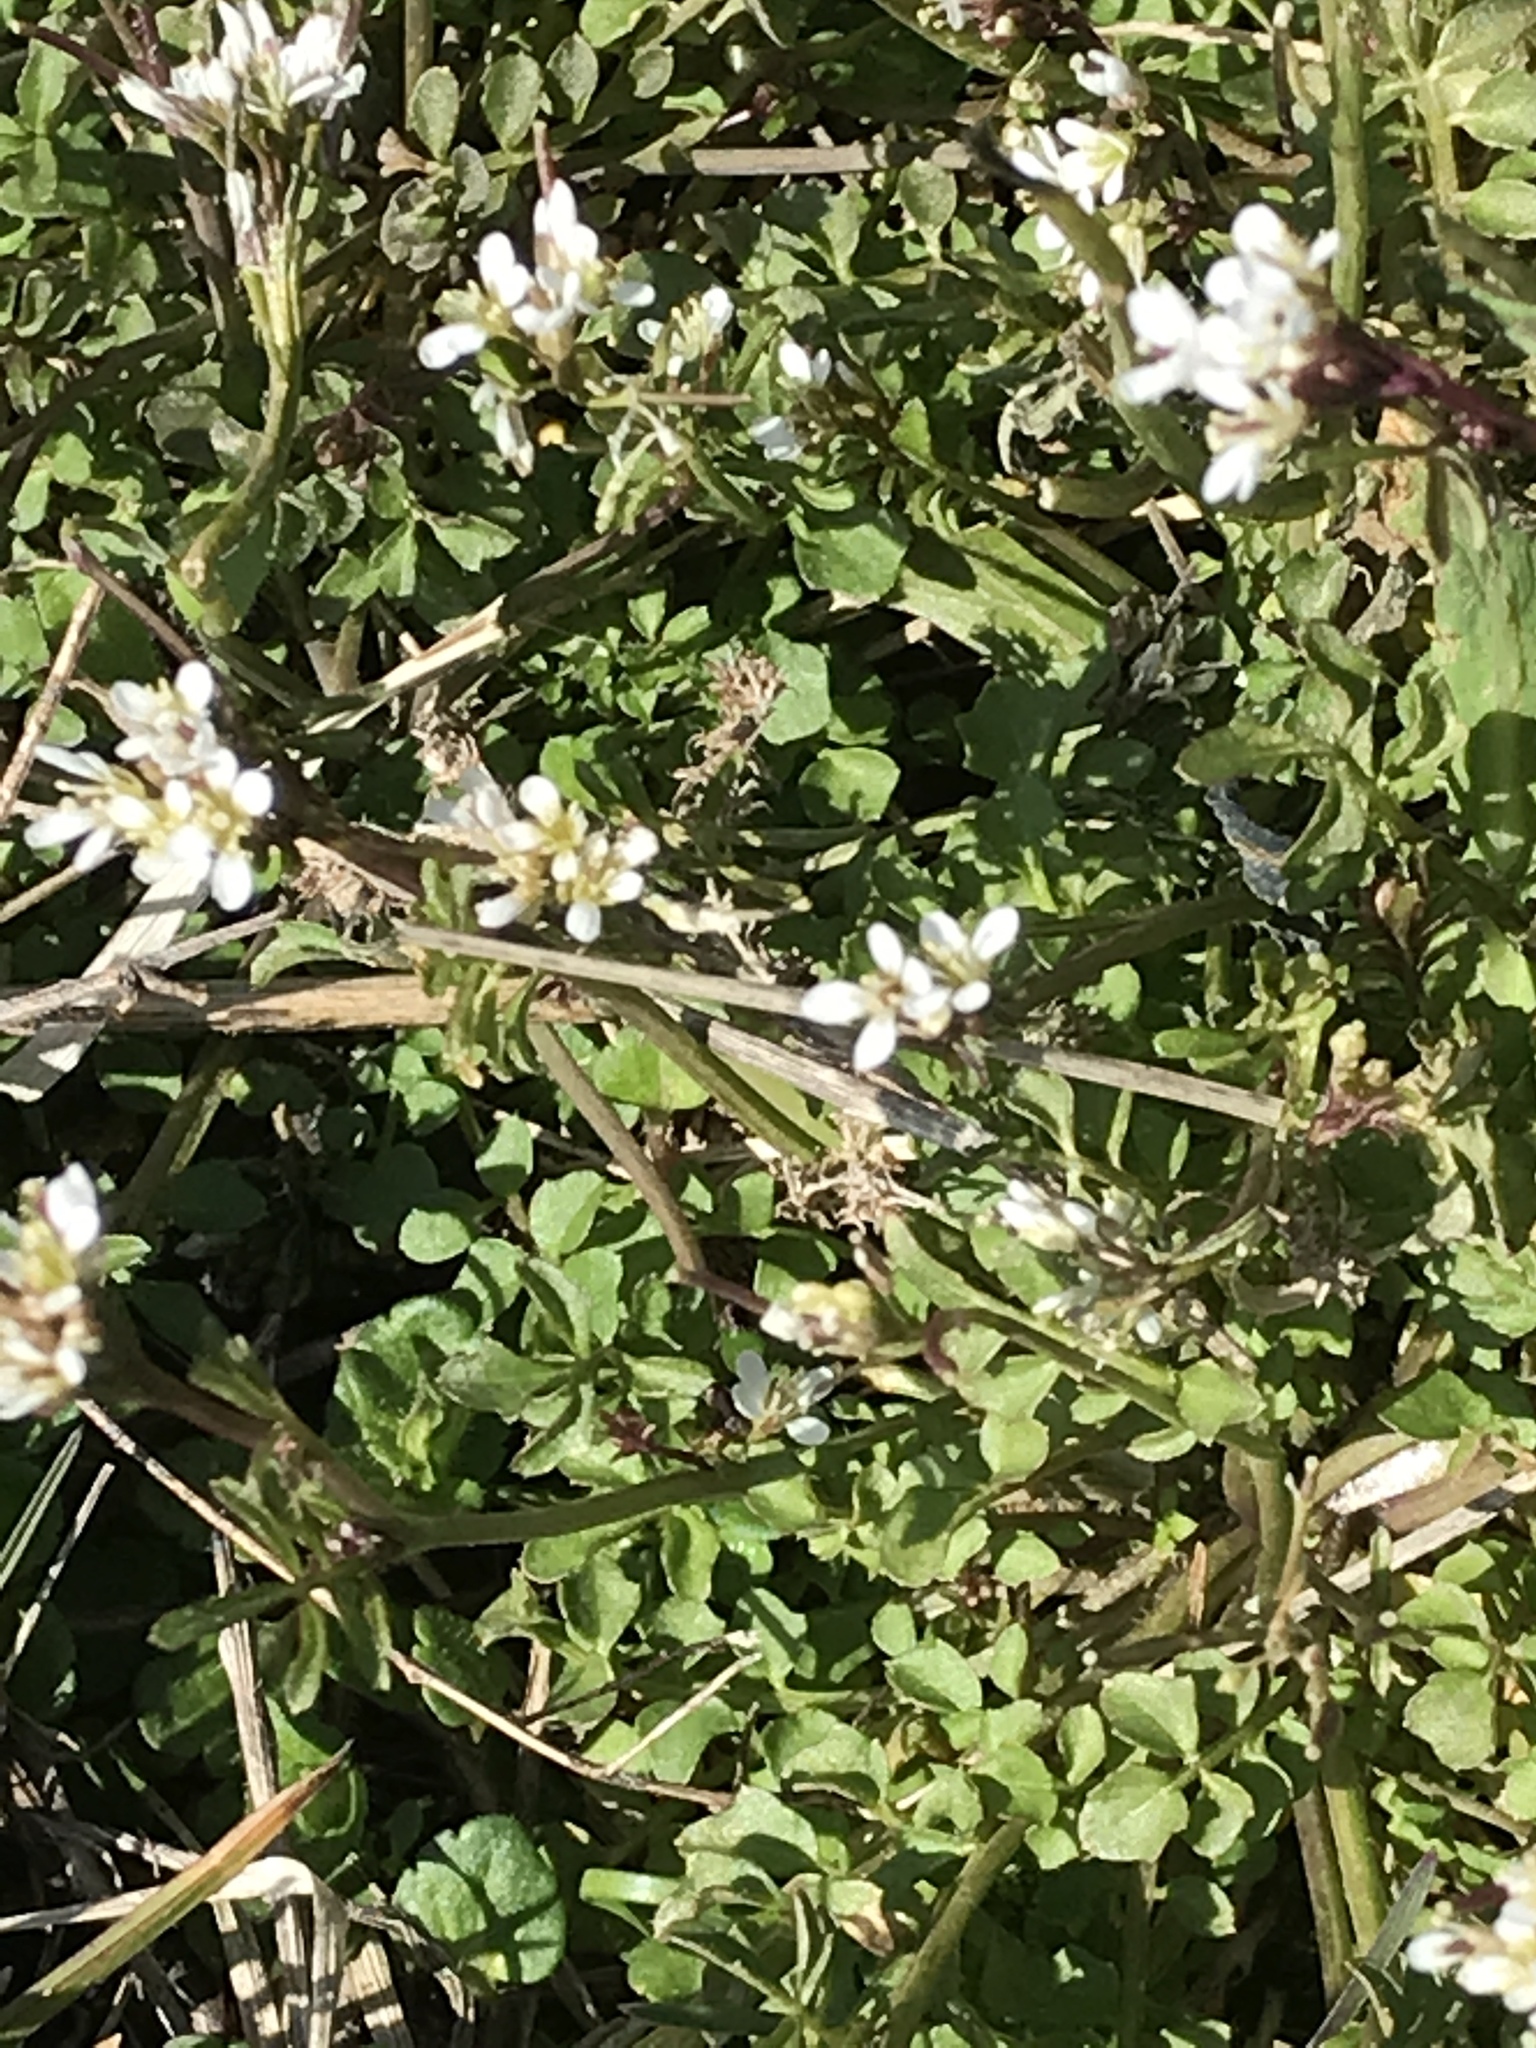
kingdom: Plantae
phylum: Tracheophyta
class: Magnoliopsida
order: Brassicales
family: Brassicaceae
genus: Cardamine
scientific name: Cardamine hirsuta
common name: Hairy bittercress
